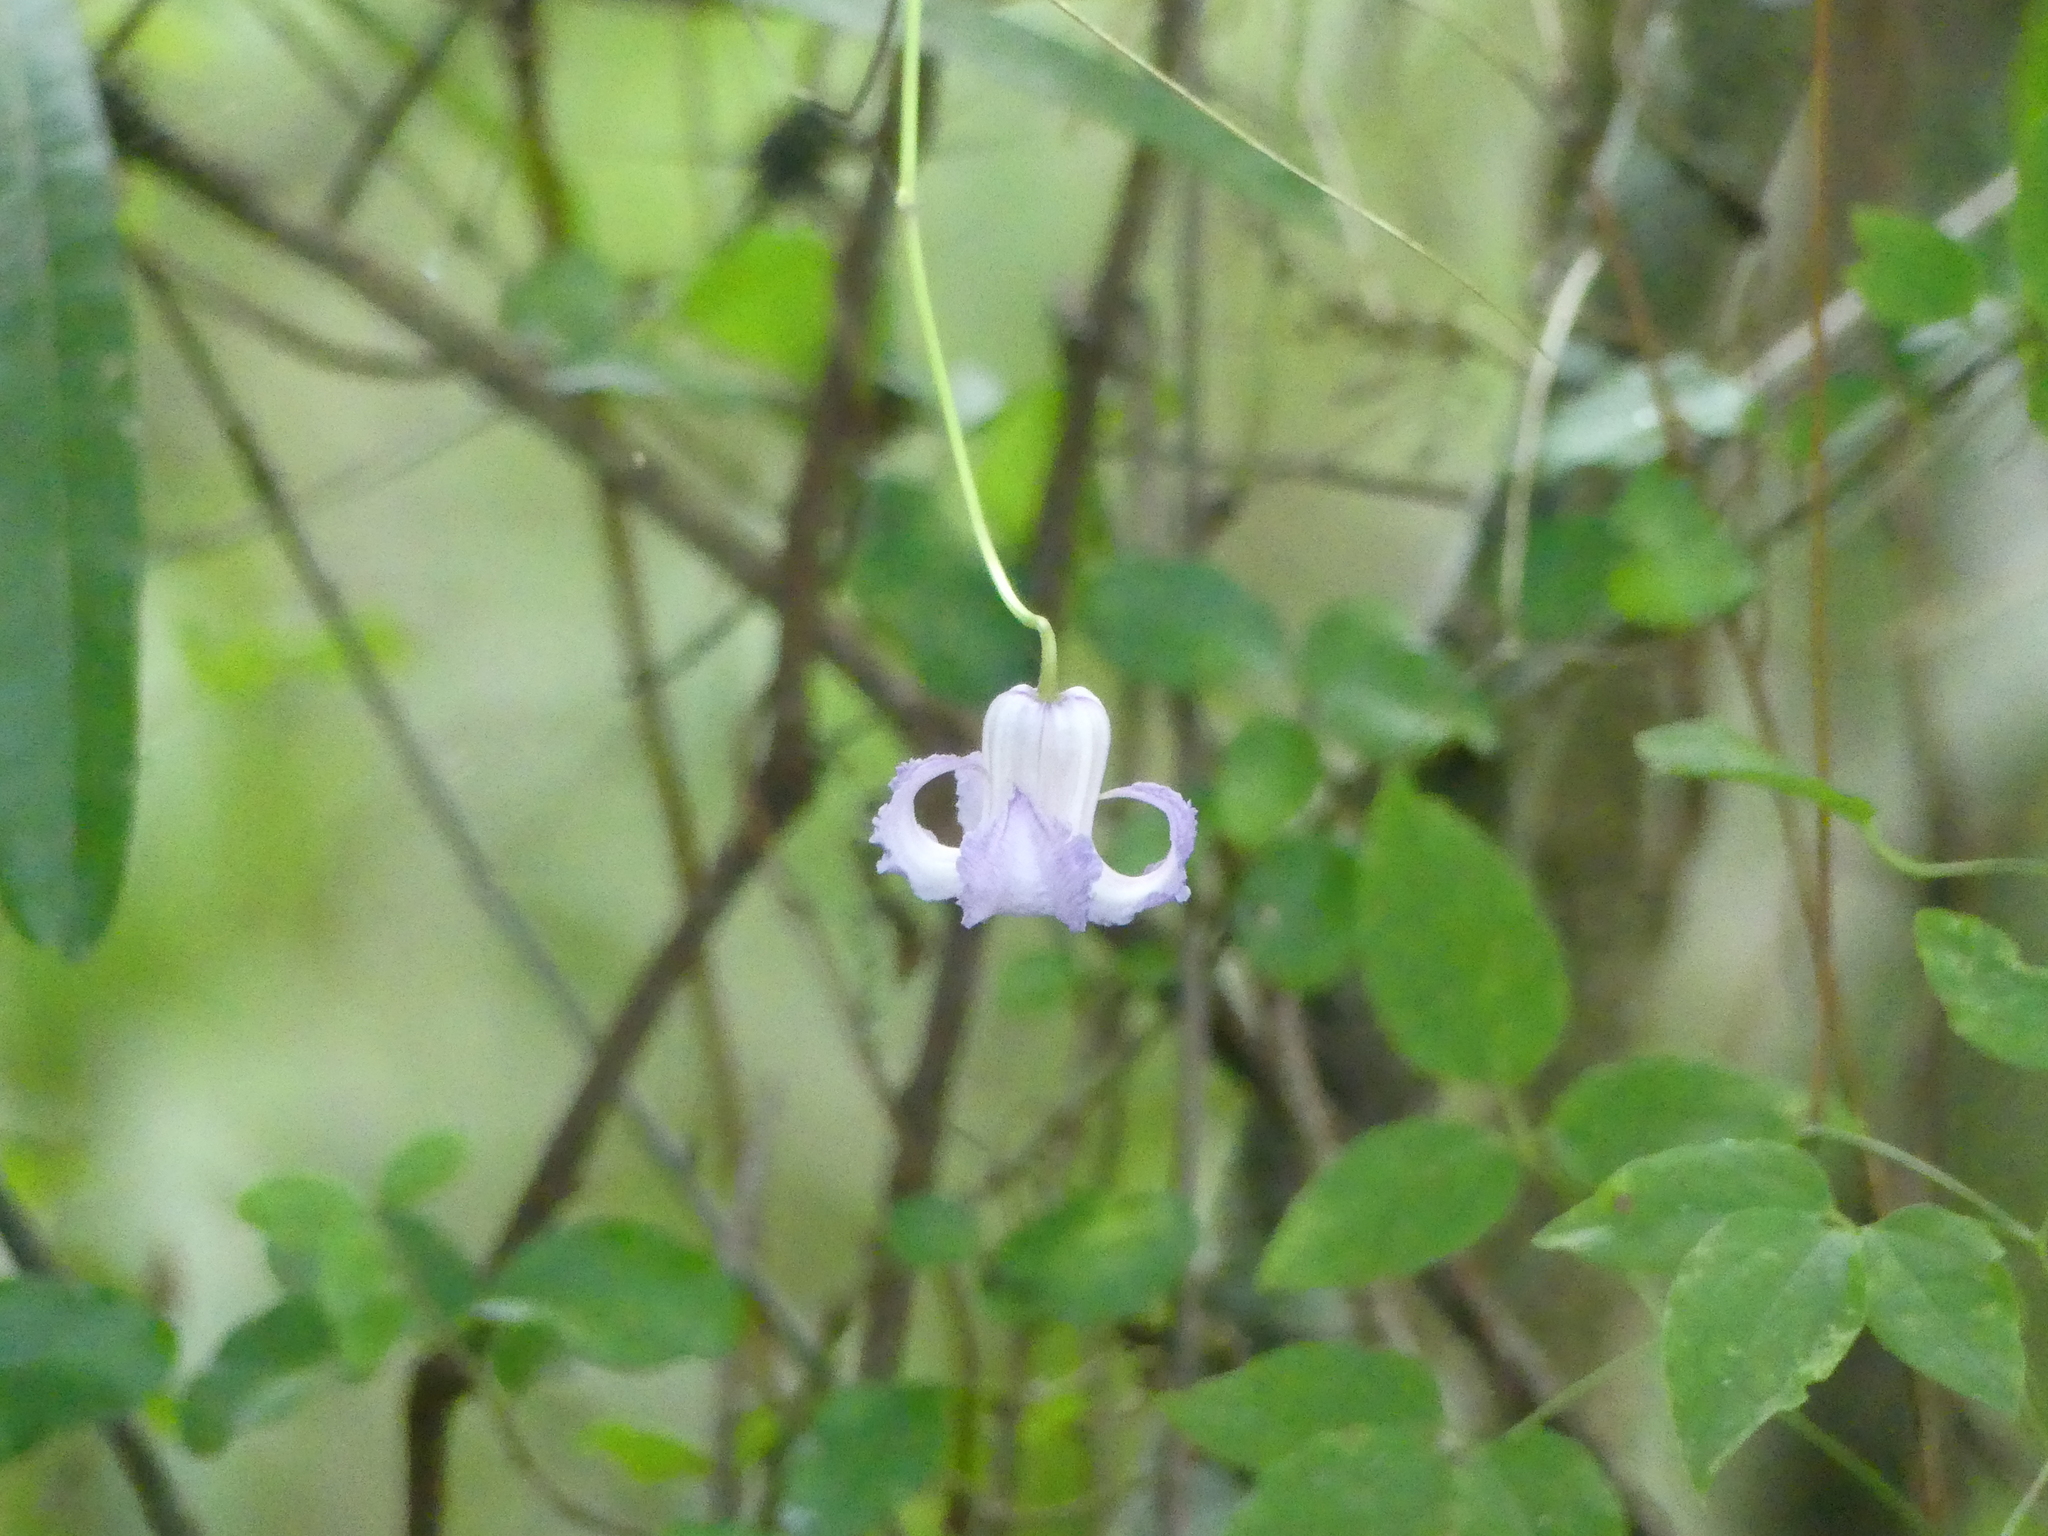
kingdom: Plantae
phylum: Tracheophyta
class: Magnoliopsida
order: Ranunculales
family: Ranunculaceae
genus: Clematis
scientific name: Clematis crispa
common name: Curly clematis
